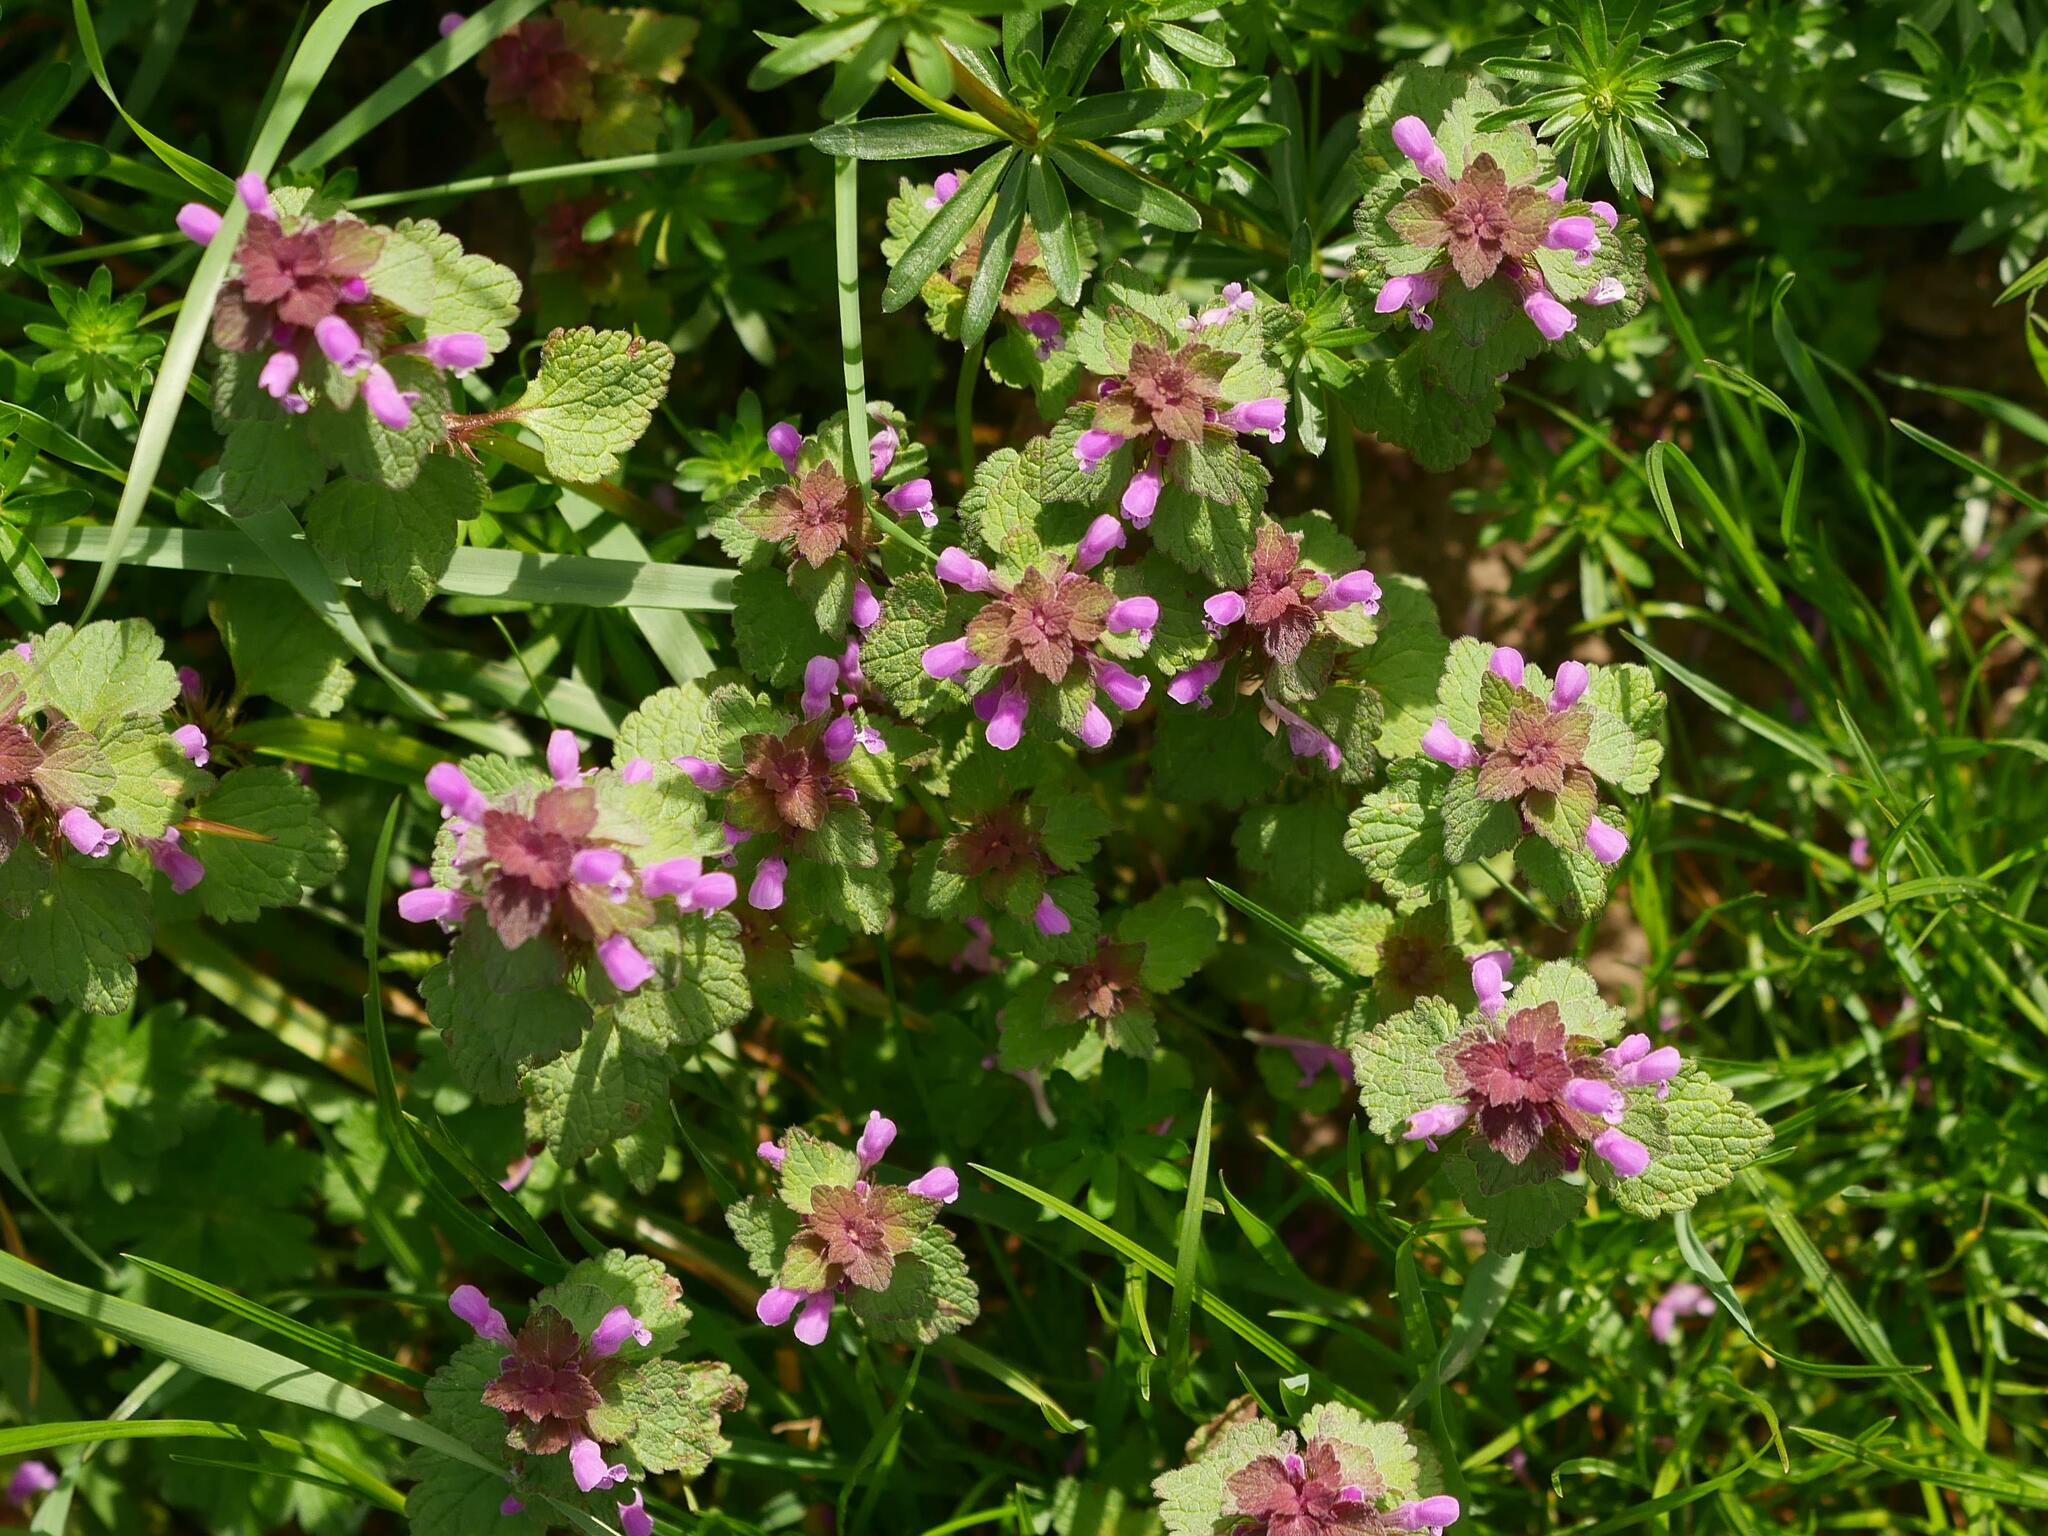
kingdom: Plantae
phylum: Tracheophyta
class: Magnoliopsida
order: Lamiales
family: Lamiaceae
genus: Lamium
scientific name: Lamium purpureum
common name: Red dead-nettle
